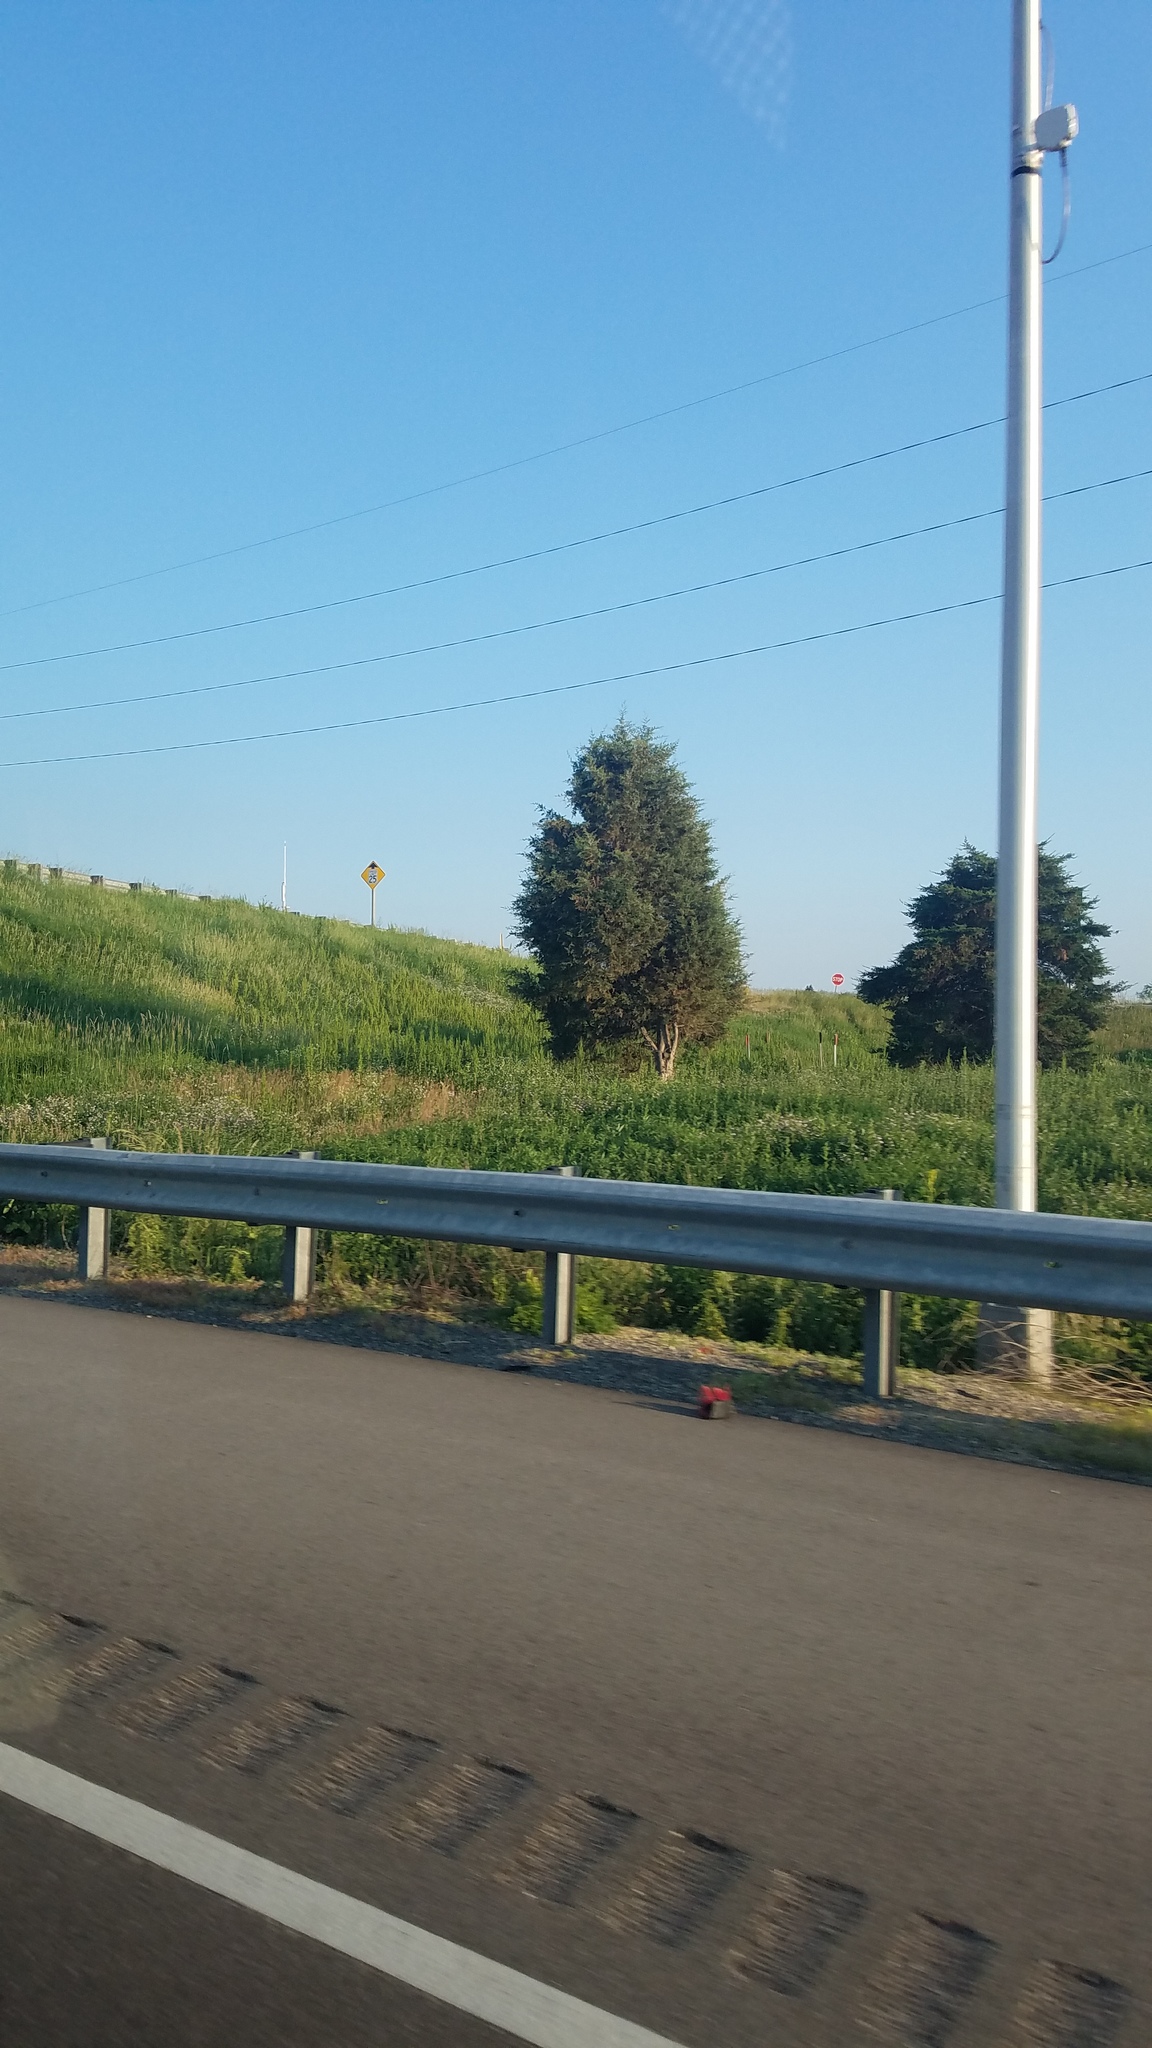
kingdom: Plantae
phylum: Tracheophyta
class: Pinopsida
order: Pinales
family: Cupressaceae
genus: Juniperus
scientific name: Juniperus virginiana
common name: Red juniper
